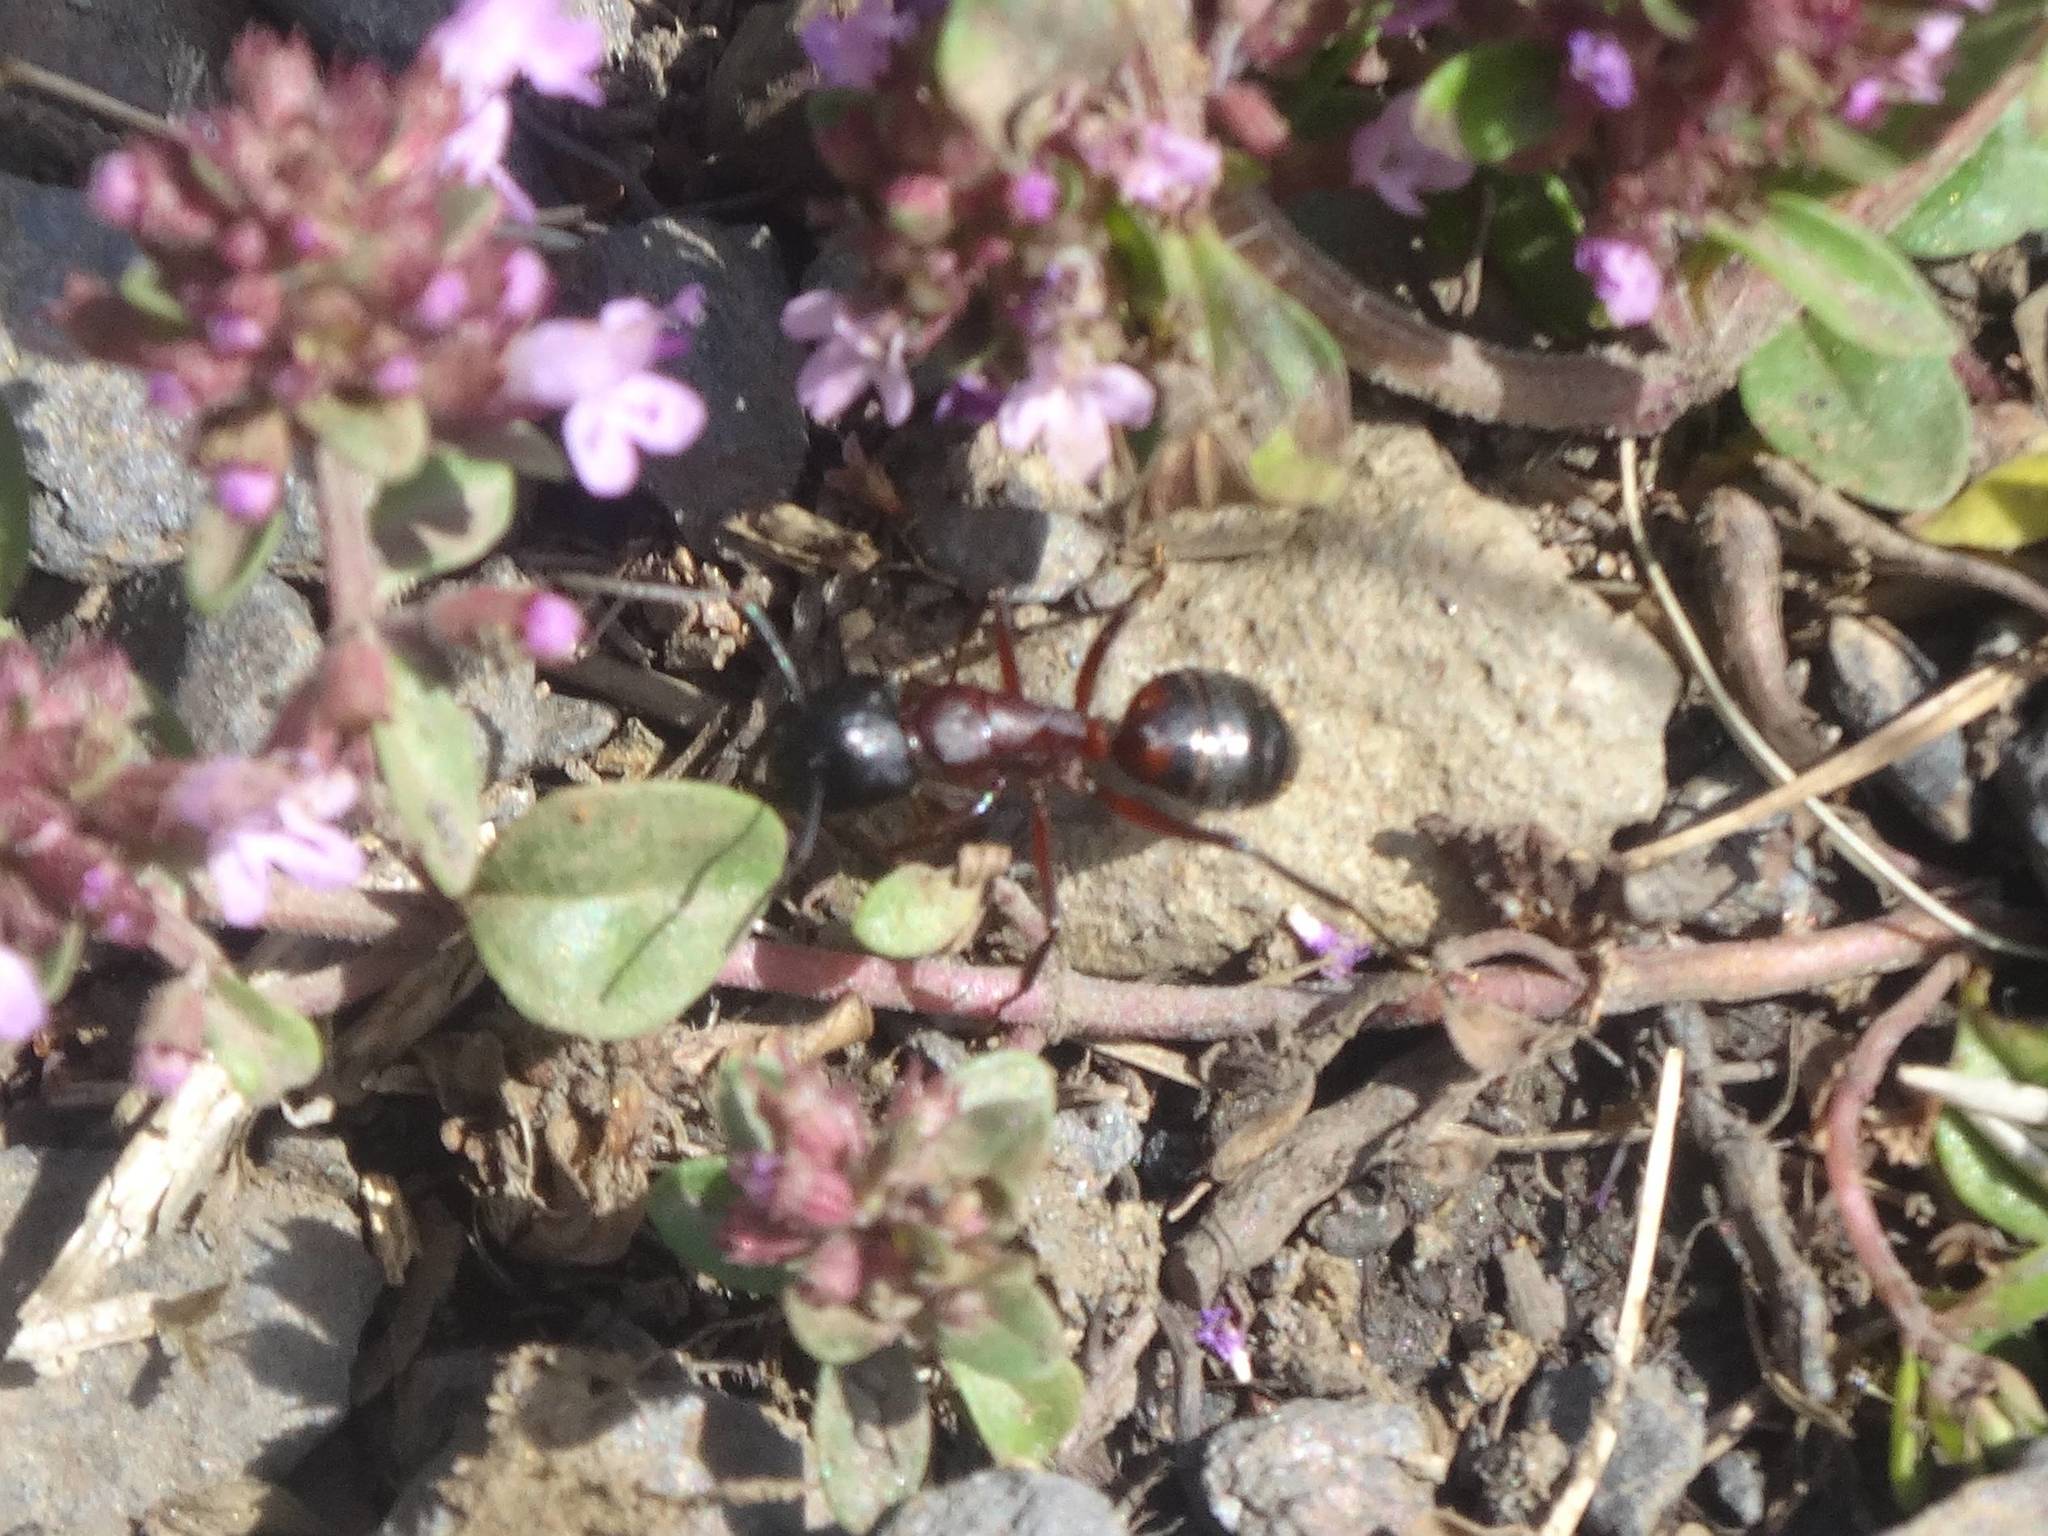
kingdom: Animalia
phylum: Arthropoda
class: Insecta
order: Hymenoptera
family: Formicidae
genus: Camponotus
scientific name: Camponotus ligniperdus
